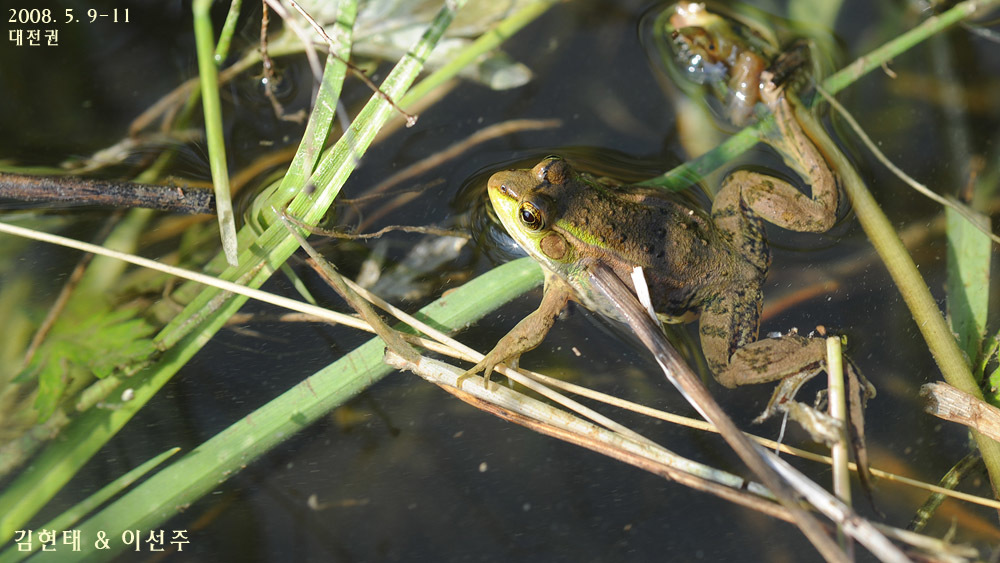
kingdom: Animalia
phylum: Chordata
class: Amphibia
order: Anura
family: Ranidae
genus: Pelophylax
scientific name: Pelophylax chosenicus
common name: Gold-spotted pond frog
